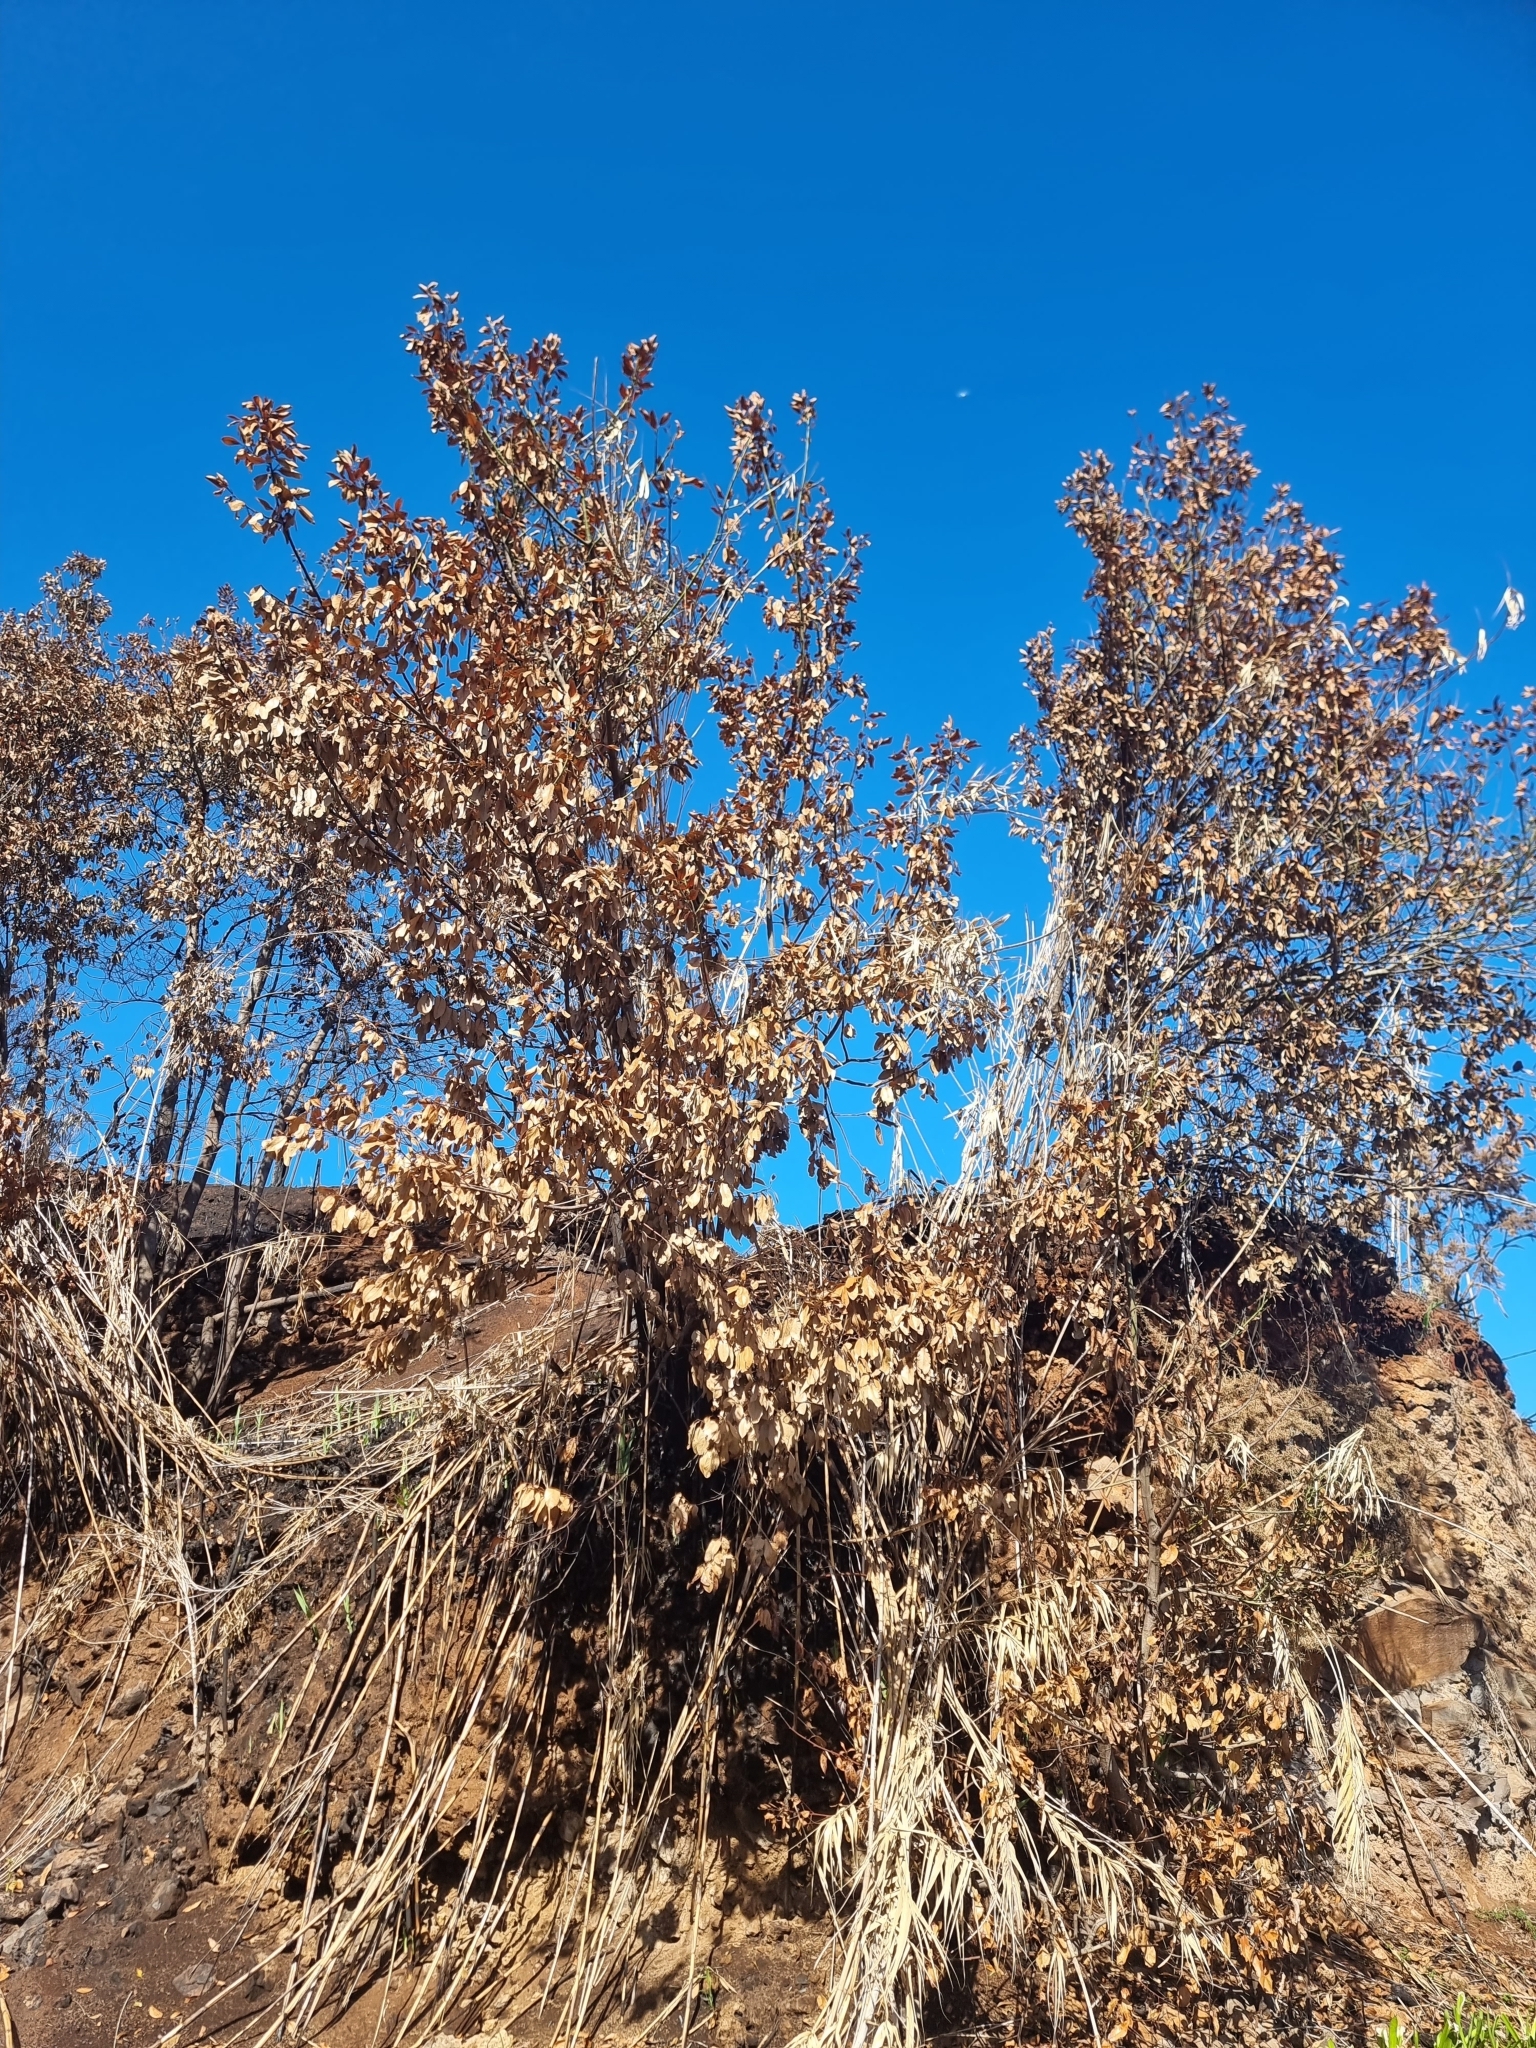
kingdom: Plantae
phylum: Tracheophyta
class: Magnoliopsida
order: Laurales
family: Lauraceae
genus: Laurus
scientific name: Laurus novocanariensis
